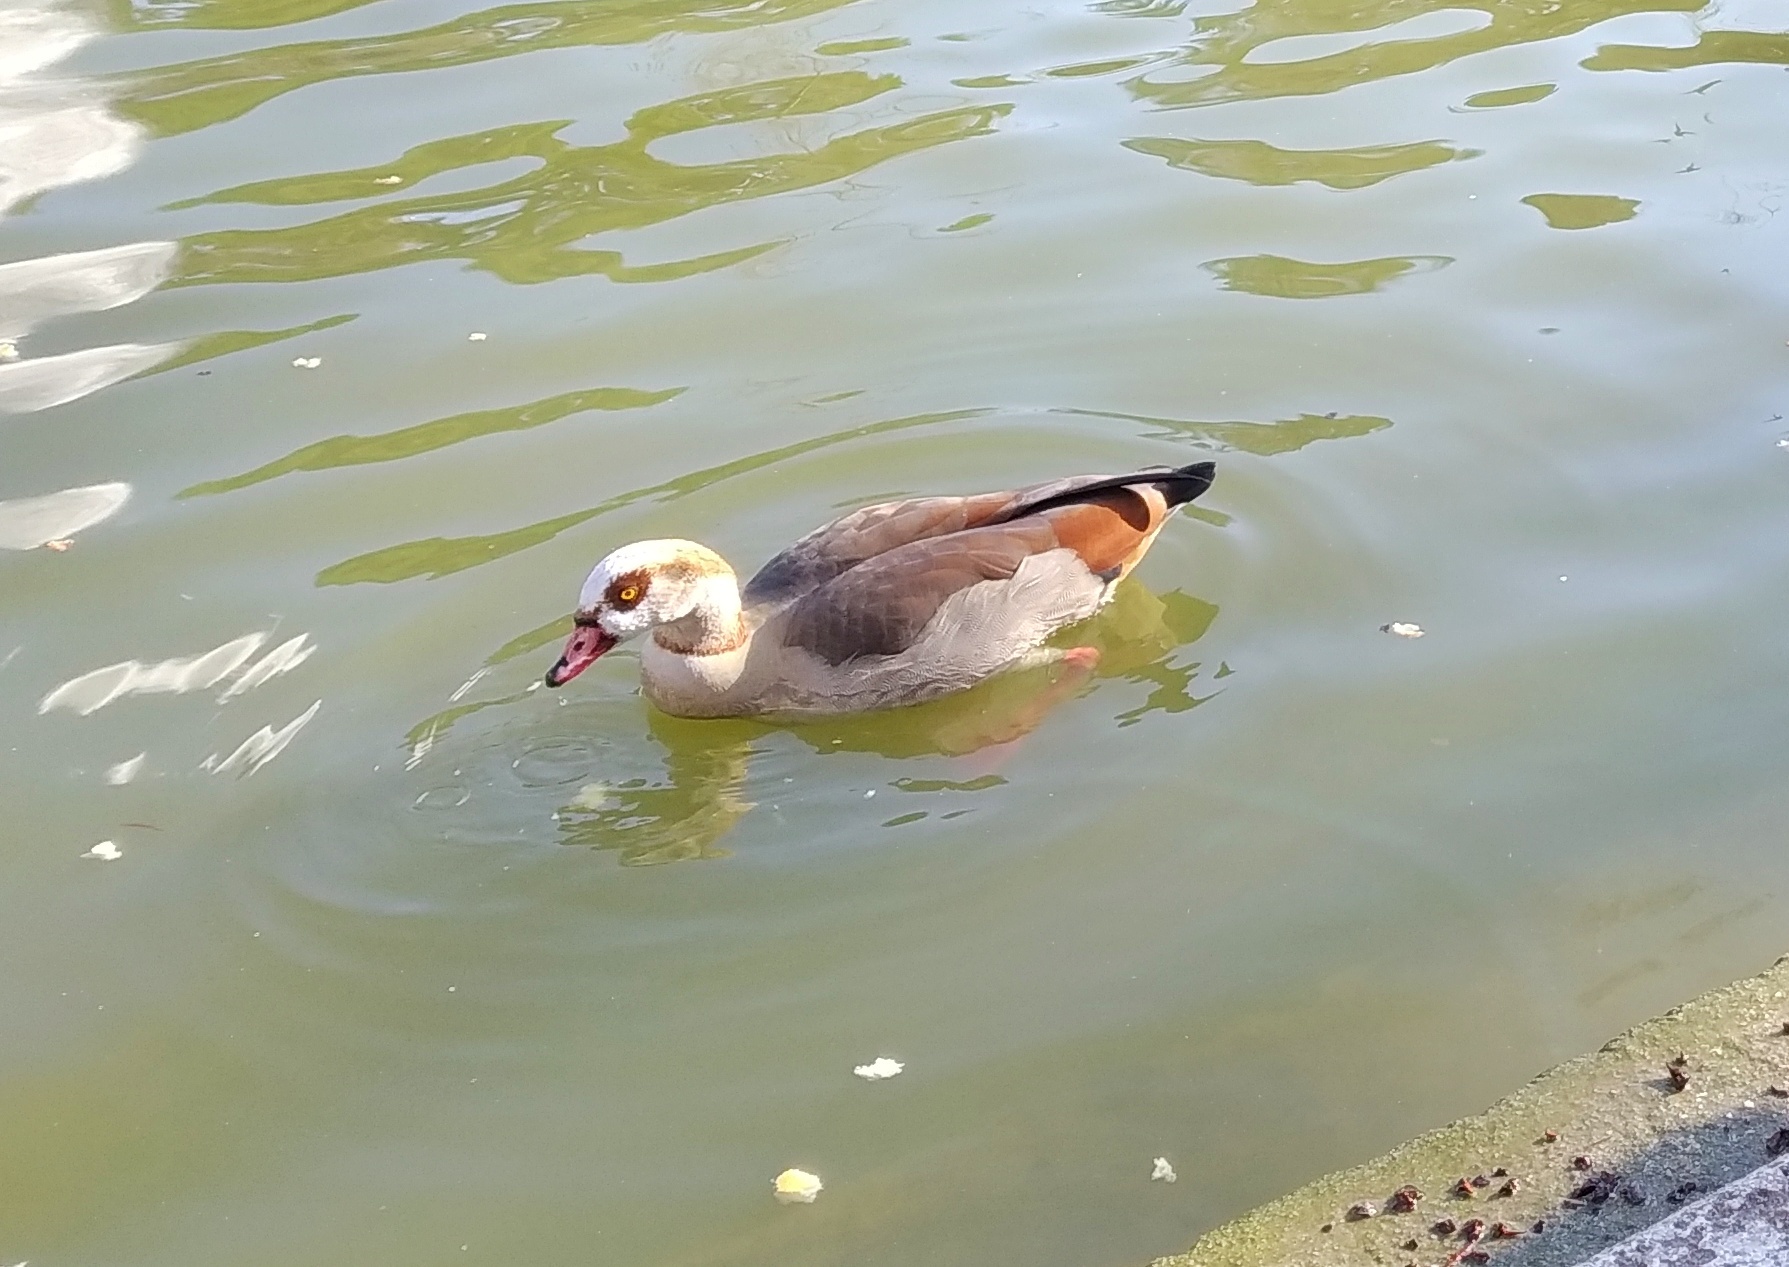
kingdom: Animalia
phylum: Chordata
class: Aves
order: Anseriformes
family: Anatidae
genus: Alopochen
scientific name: Alopochen aegyptiaca
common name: Egyptian goose
